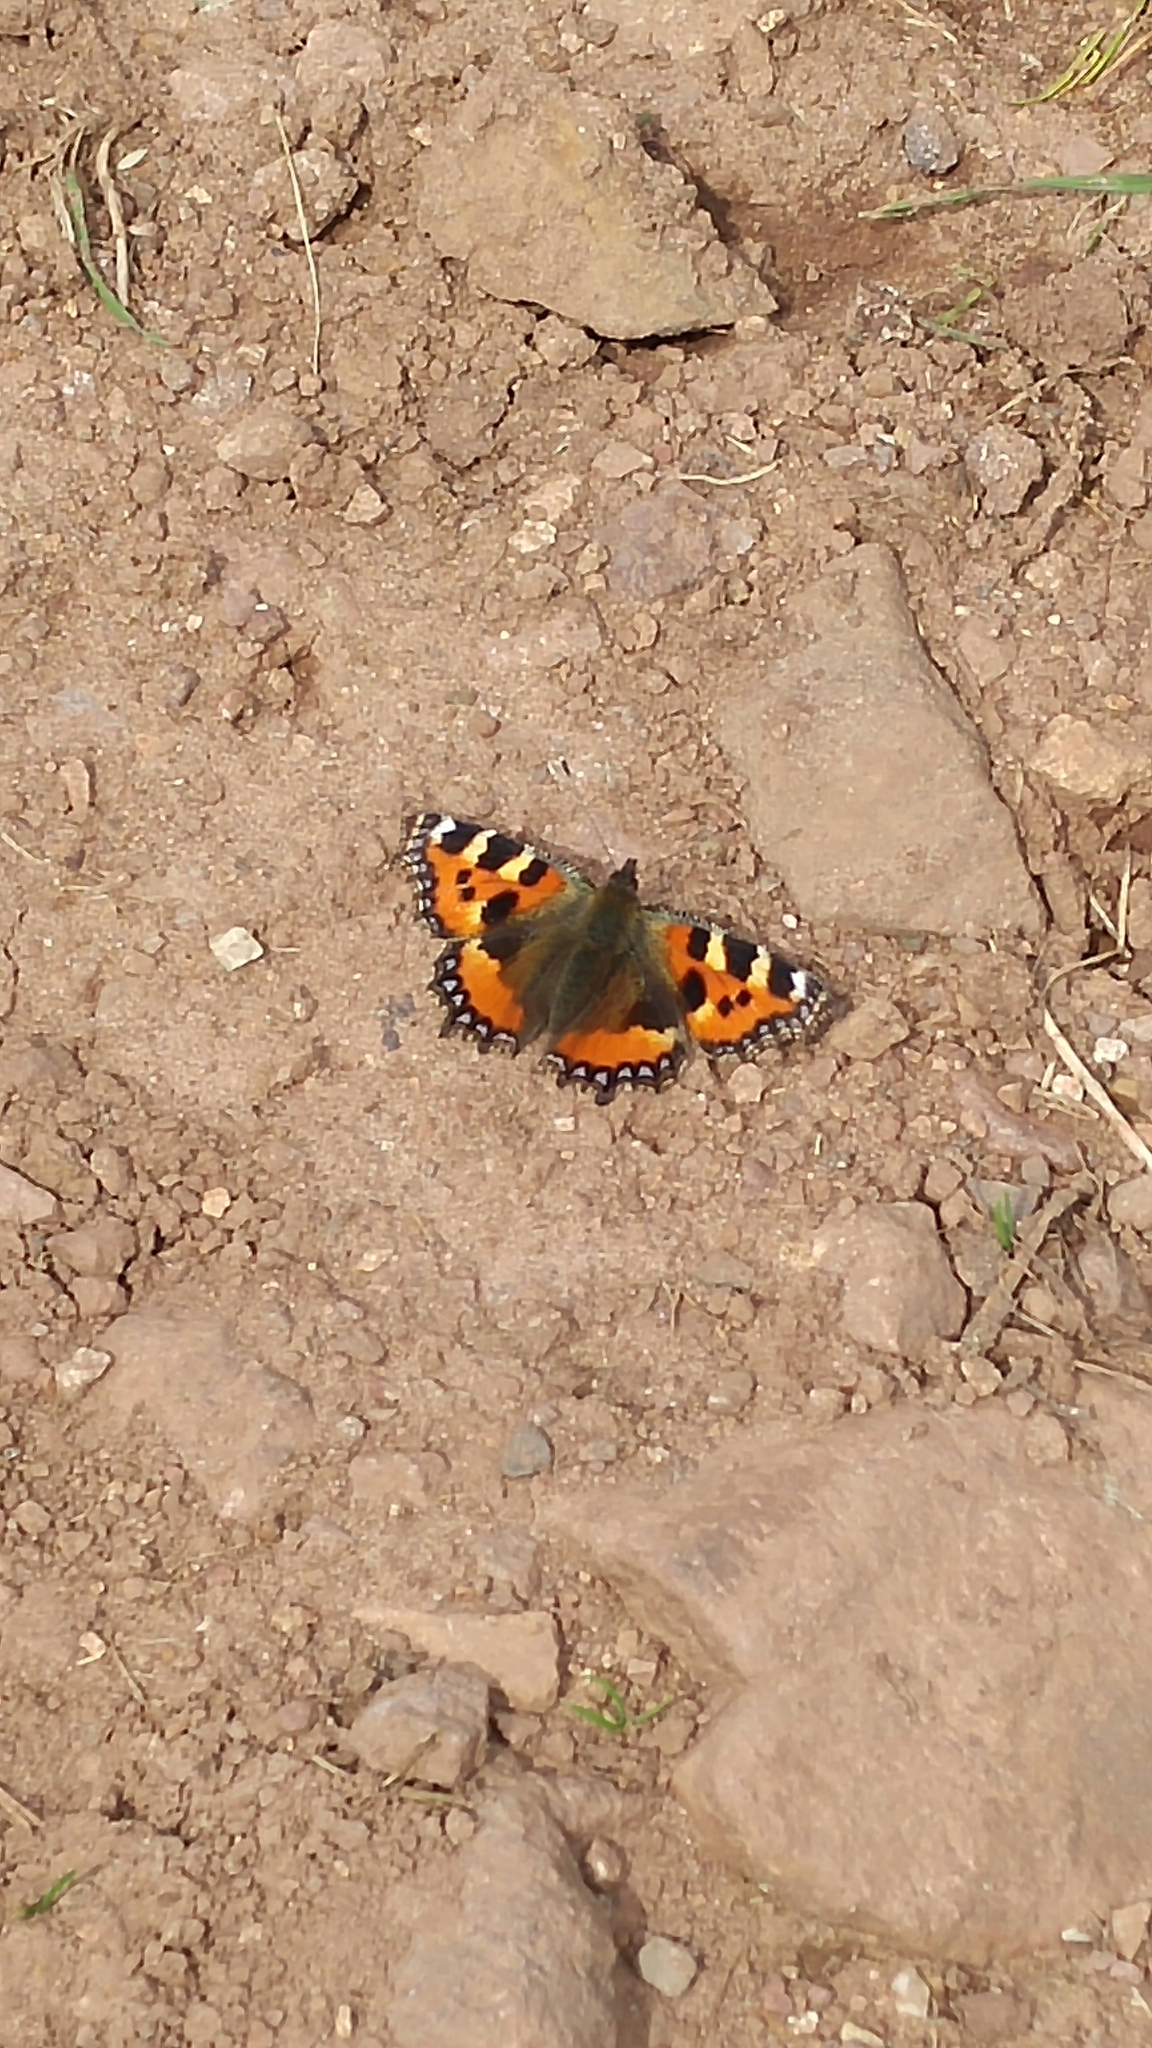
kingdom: Animalia
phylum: Arthropoda
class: Insecta
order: Lepidoptera
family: Nymphalidae
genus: Aglais
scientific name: Aglais urticae
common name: Small tortoiseshell
